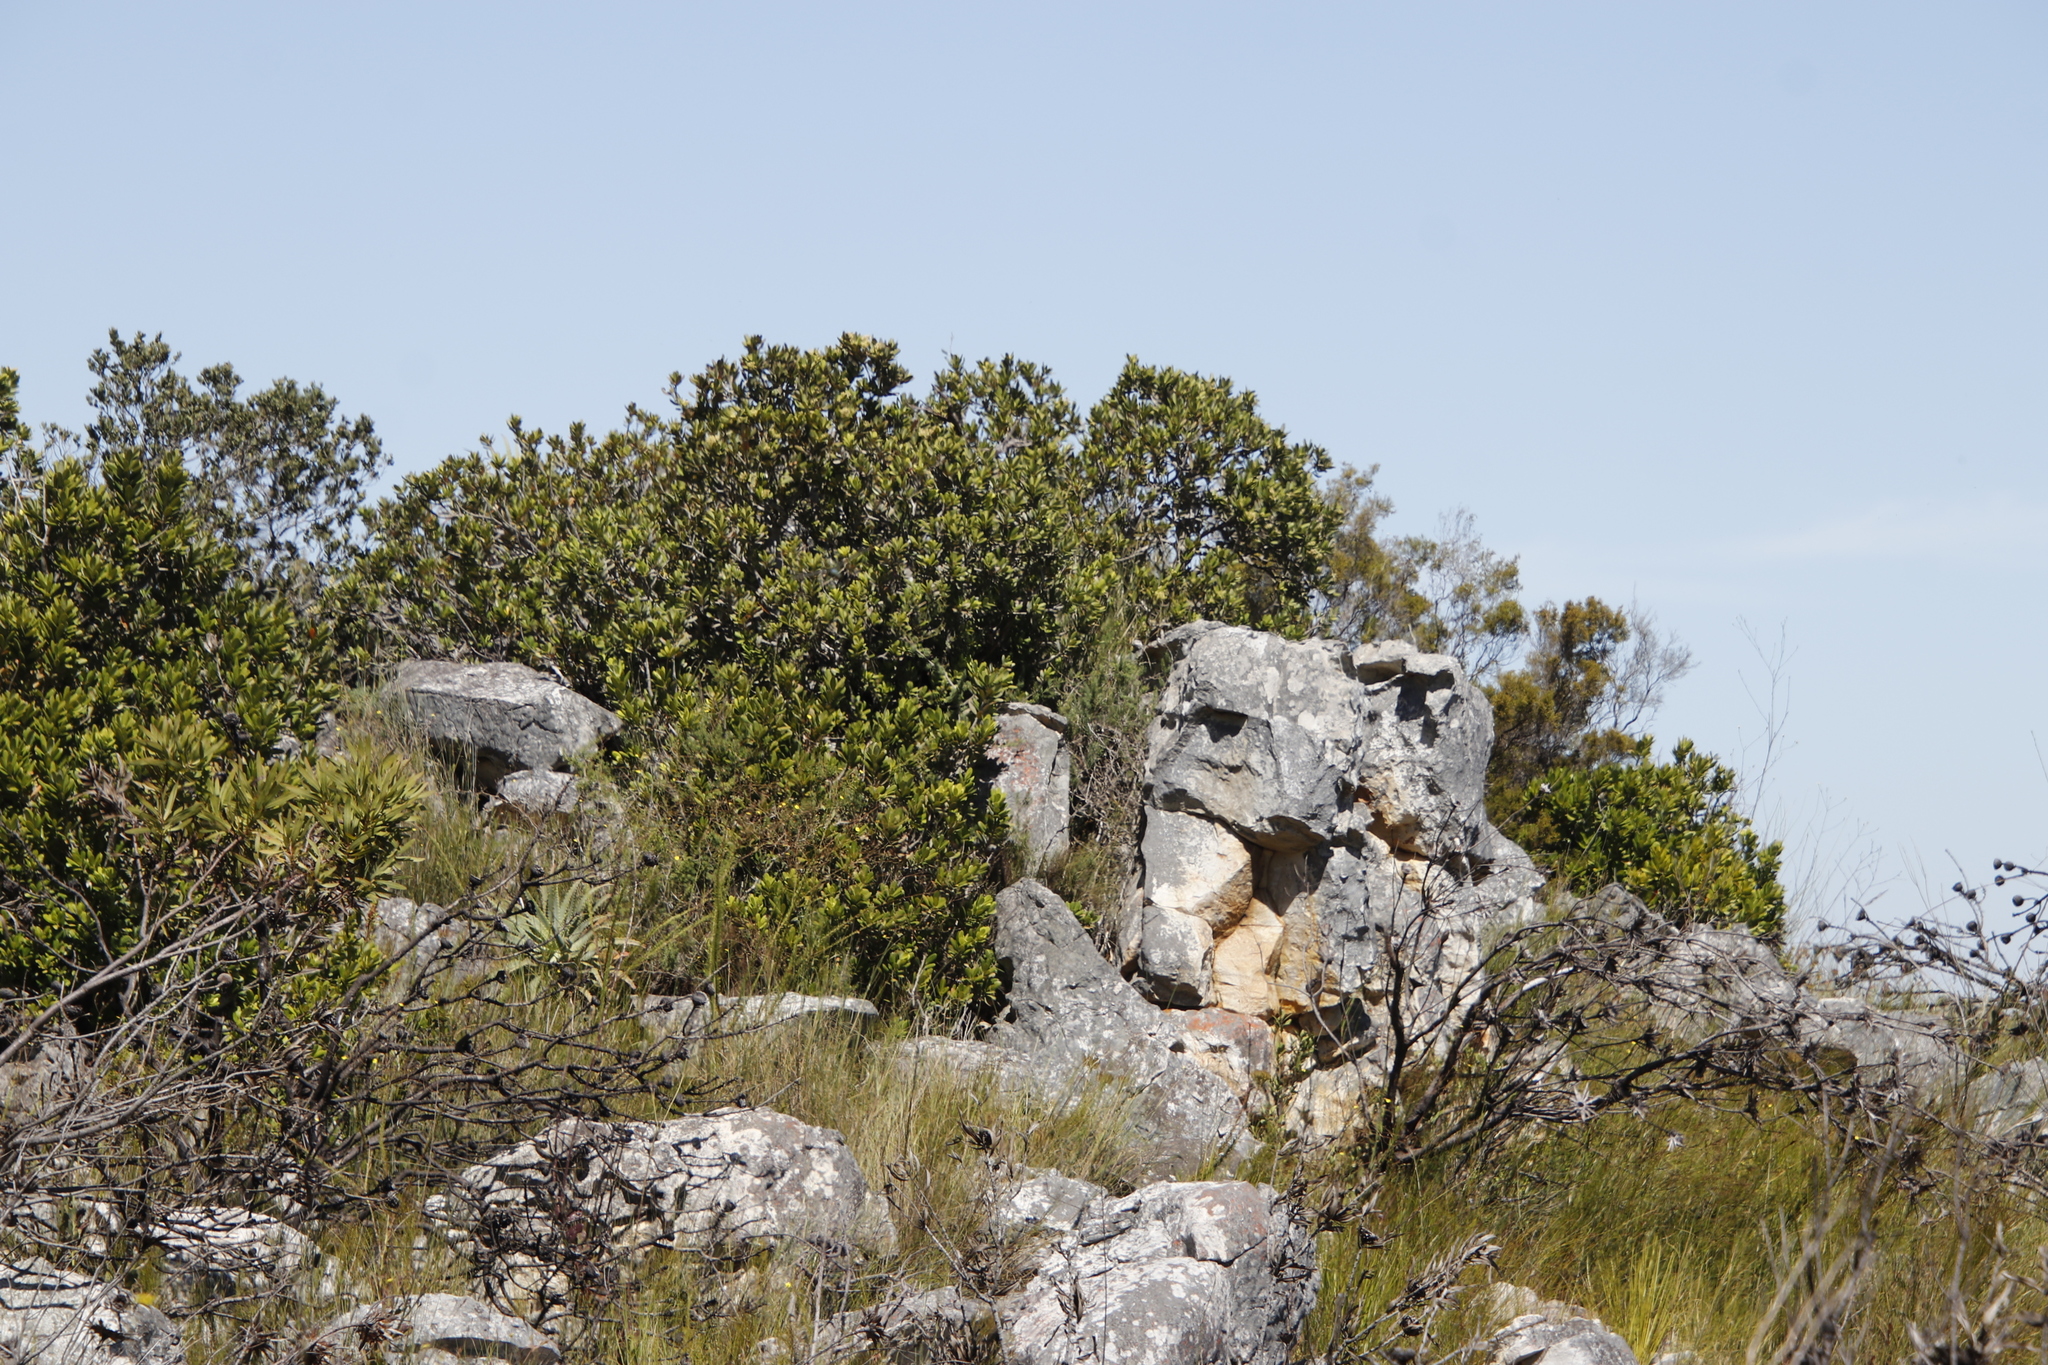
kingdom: Plantae
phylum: Tracheophyta
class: Liliopsida
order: Asparagales
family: Asphodelaceae
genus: Aloe
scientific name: Aloe arborescens
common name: Candelabra aloe
